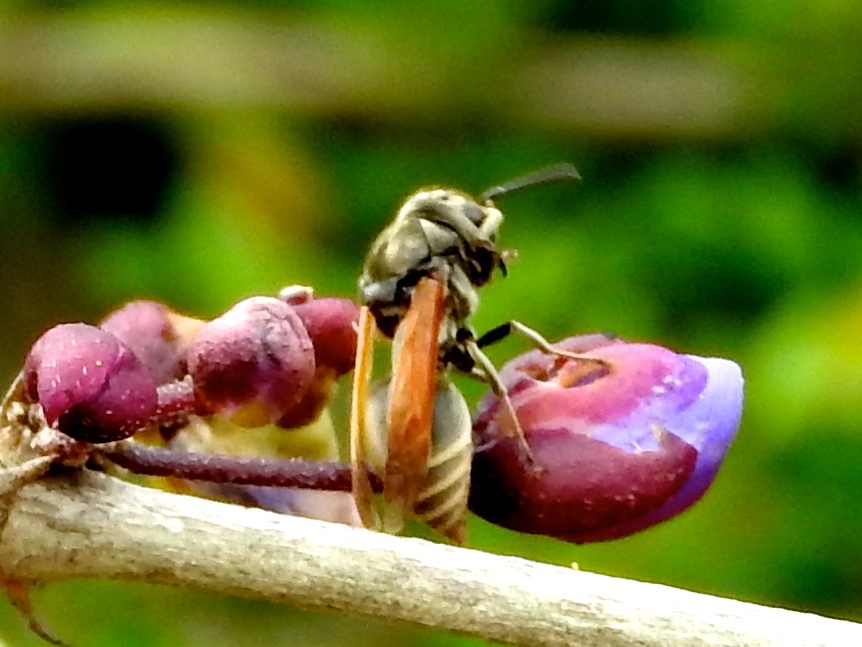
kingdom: Animalia
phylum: Arthropoda
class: Insecta
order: Hymenoptera
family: Vespidae
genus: Brachygastra
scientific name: Brachygastra mellifica
